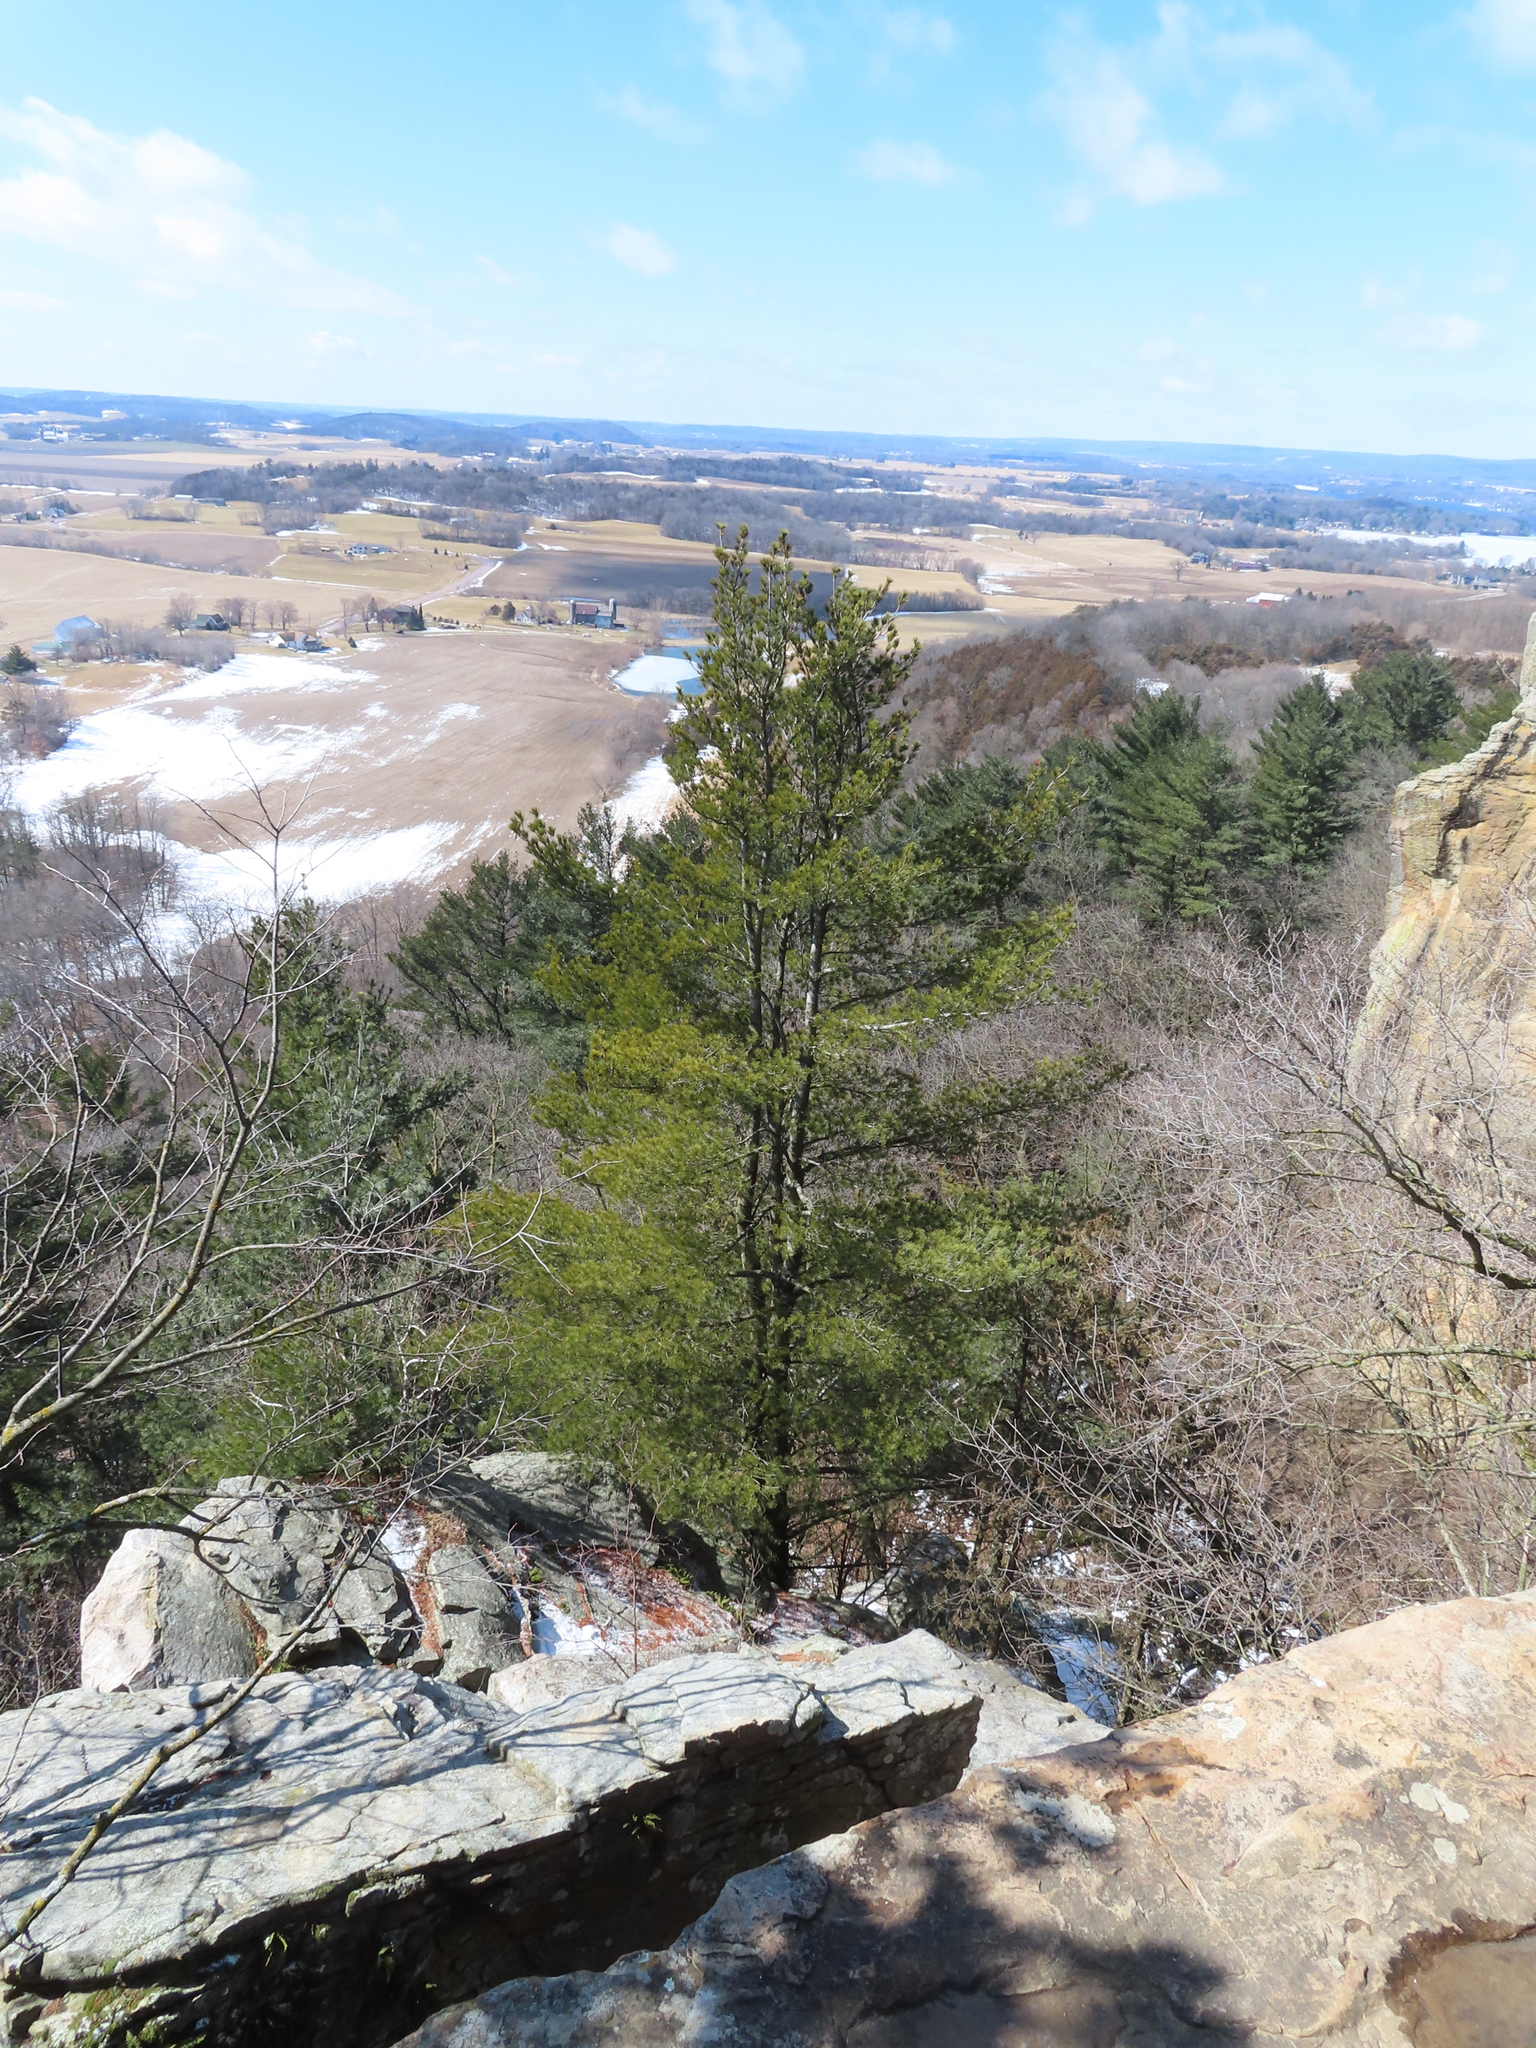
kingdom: Plantae
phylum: Tracheophyta
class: Pinopsida
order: Pinales
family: Pinaceae
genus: Pinus
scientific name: Pinus strobus
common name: Weymouth pine
